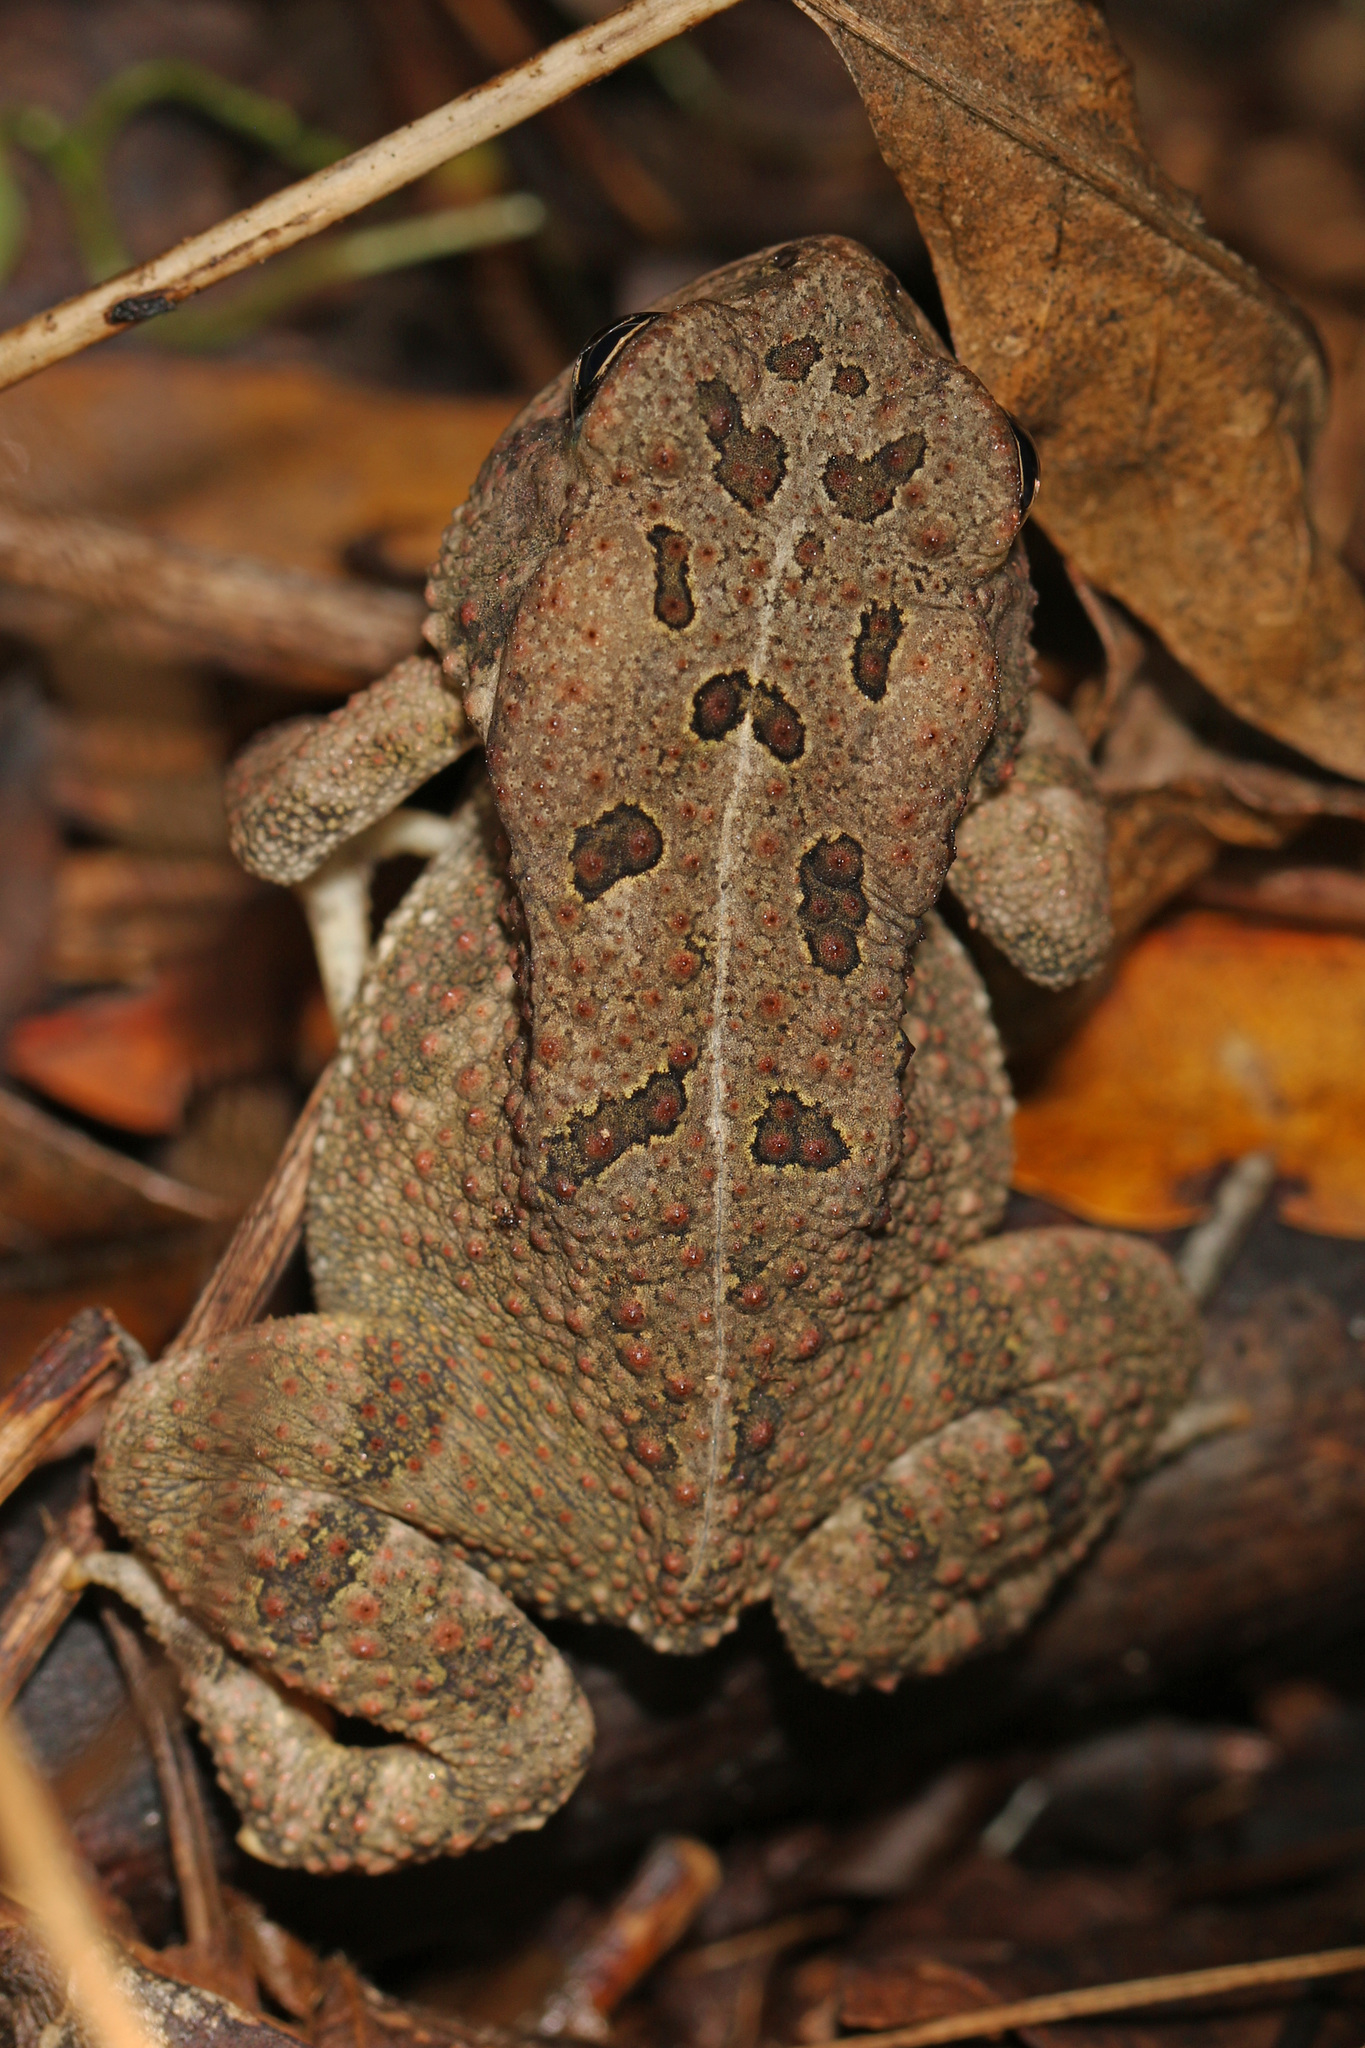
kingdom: Animalia
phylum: Chordata
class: Amphibia
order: Anura
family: Bufonidae
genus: Anaxyrus
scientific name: Anaxyrus fowleri
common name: Fowler's toad
